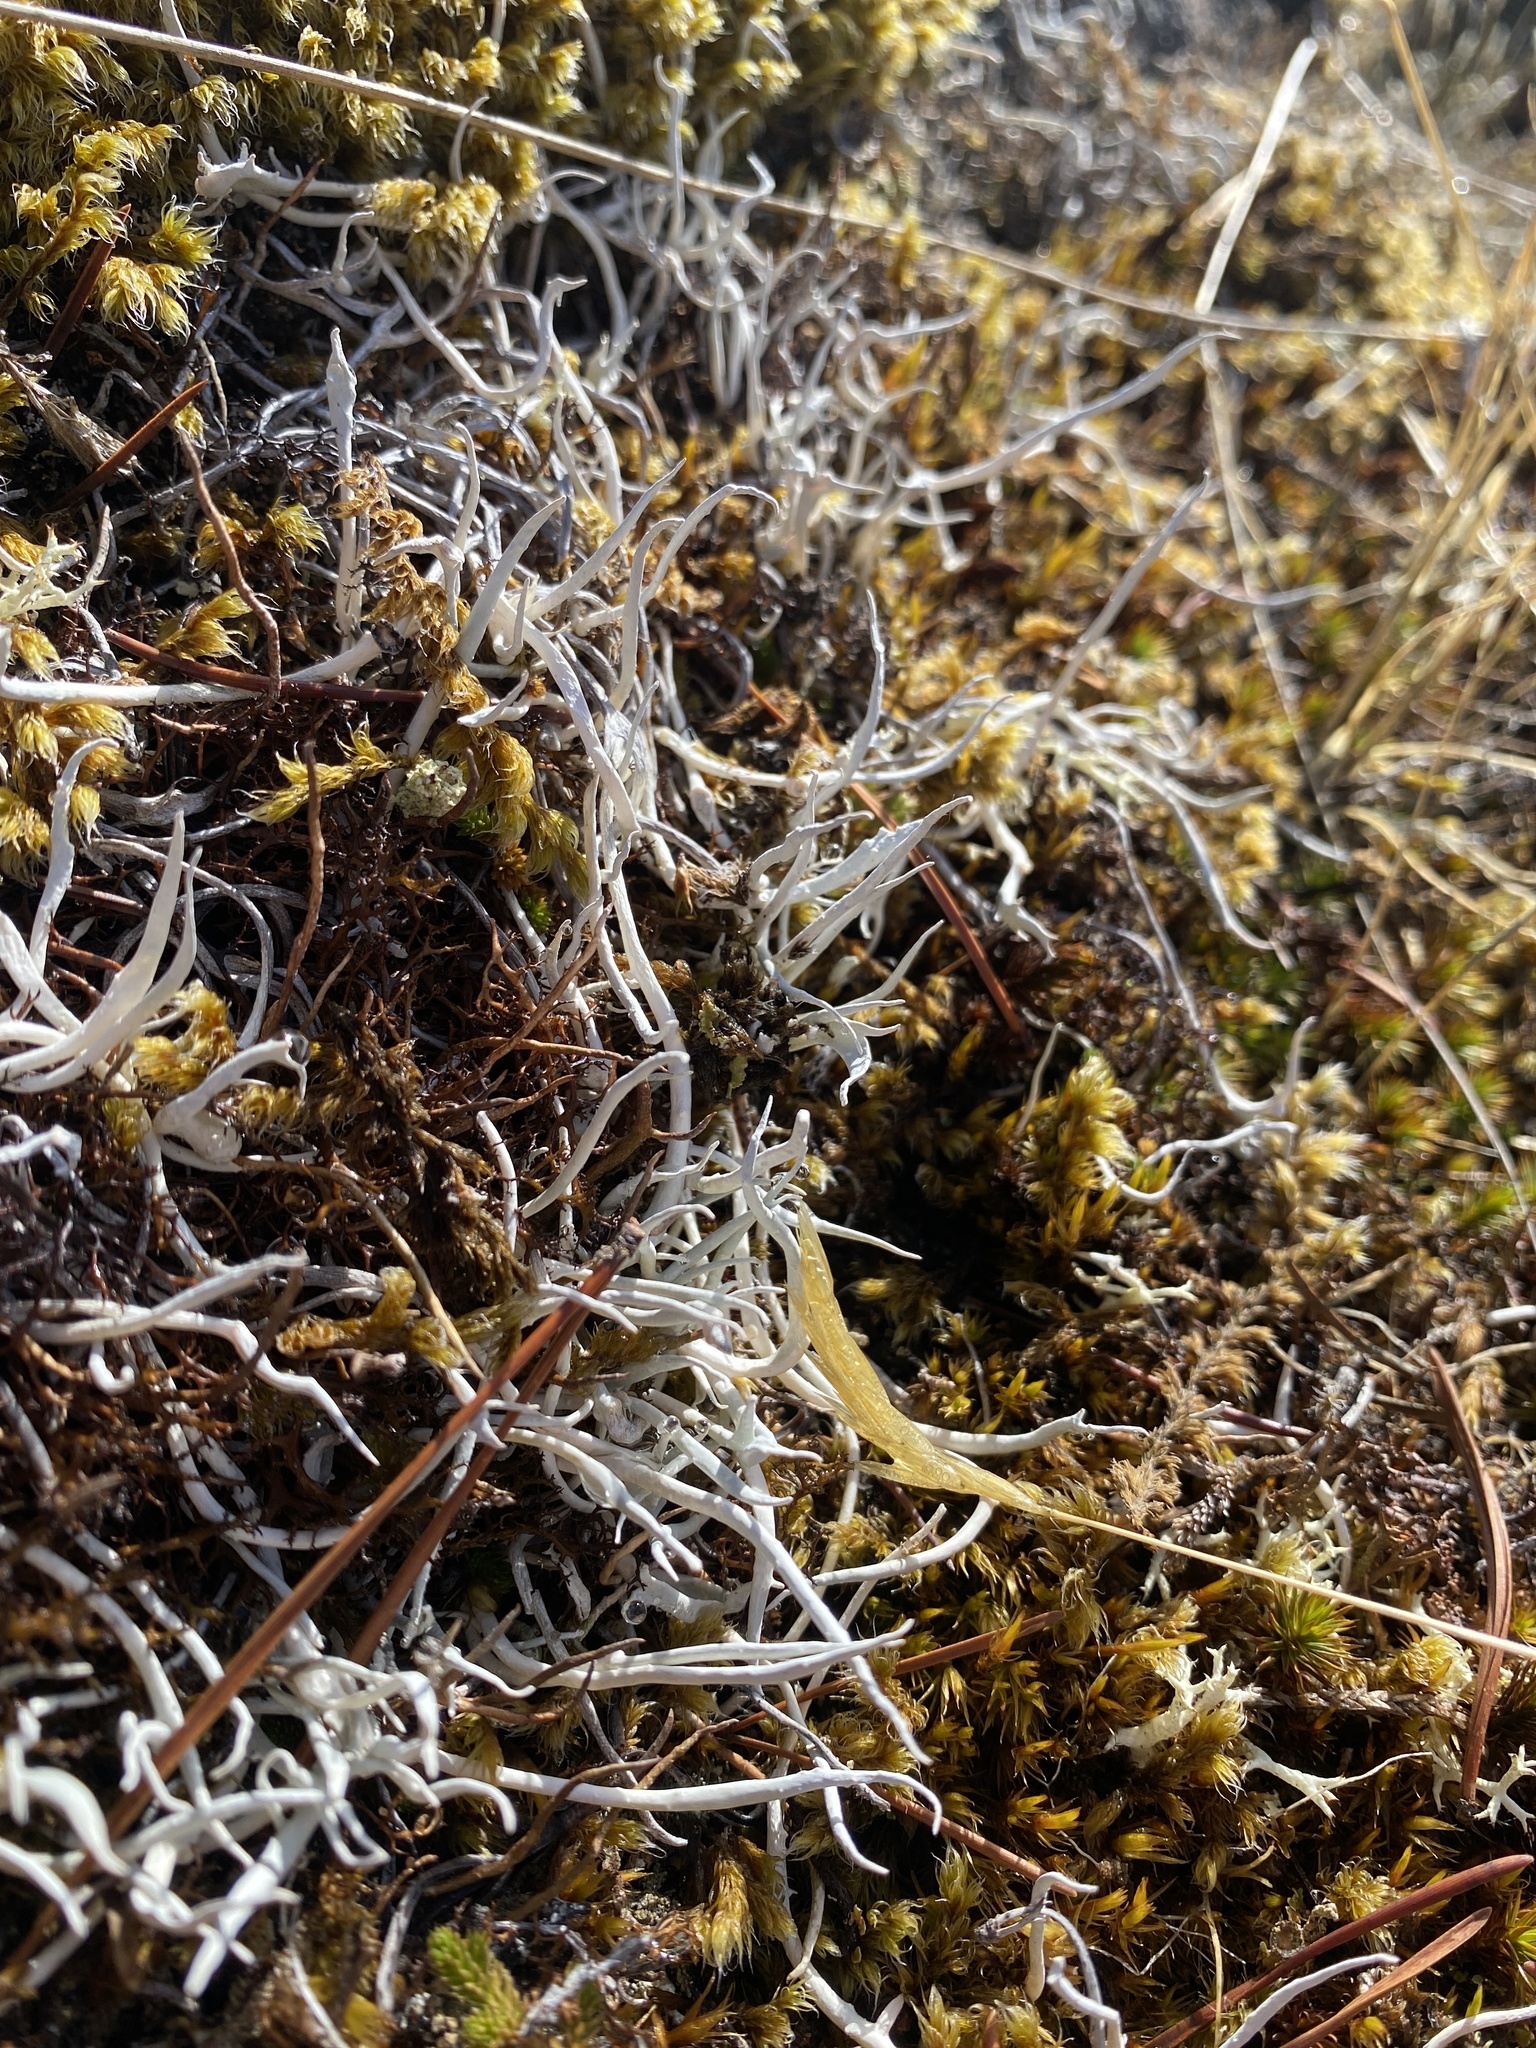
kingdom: Fungi
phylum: Ascomycota
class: Lecanoromycetes
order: Pertusariales
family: Icmadophilaceae
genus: Thamnolia
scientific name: Thamnolia vermicularis
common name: Whiteworm lichen
